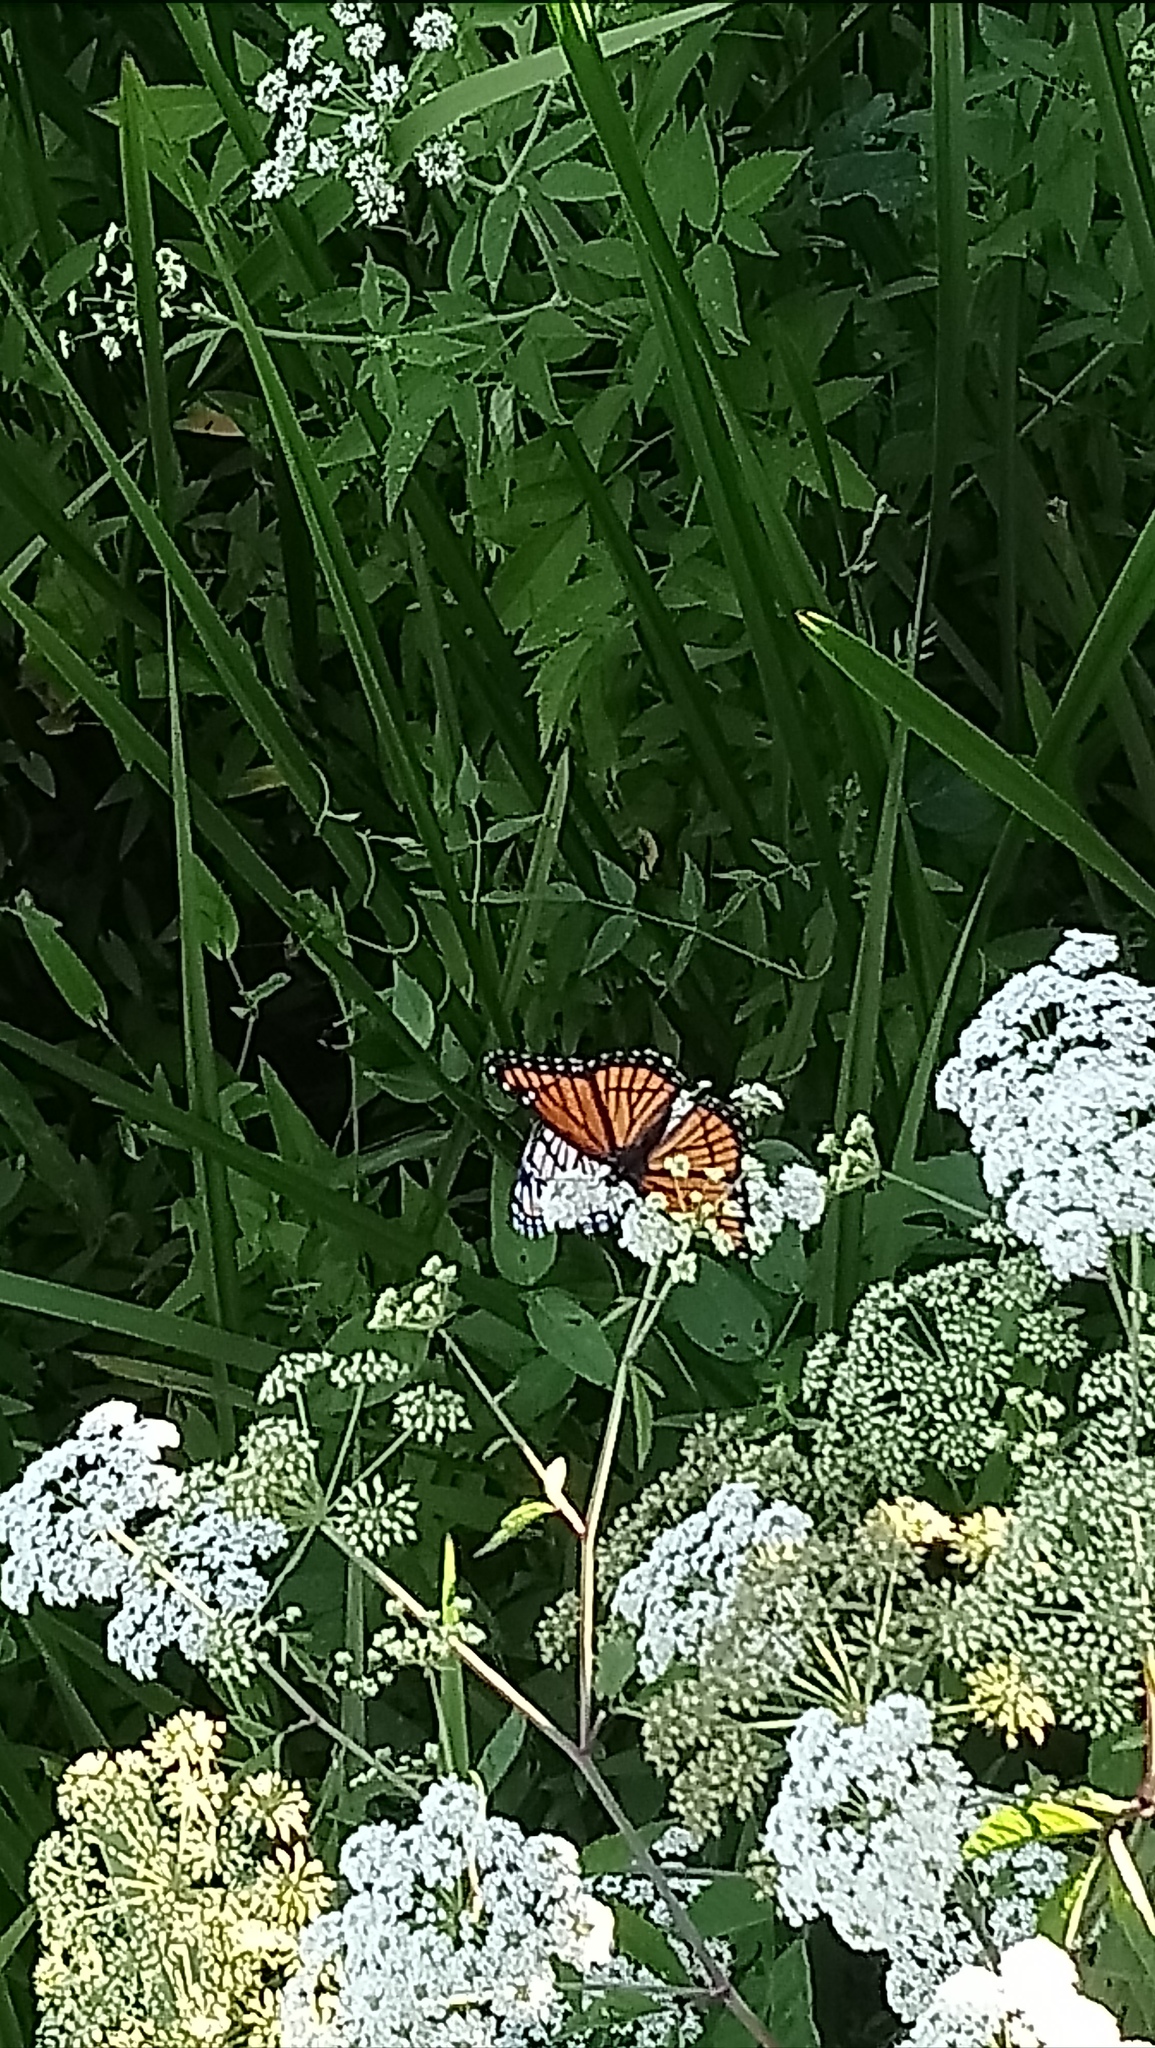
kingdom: Animalia
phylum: Arthropoda
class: Insecta
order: Lepidoptera
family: Nymphalidae
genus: Limenitis
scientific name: Limenitis archippus
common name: Viceroy
